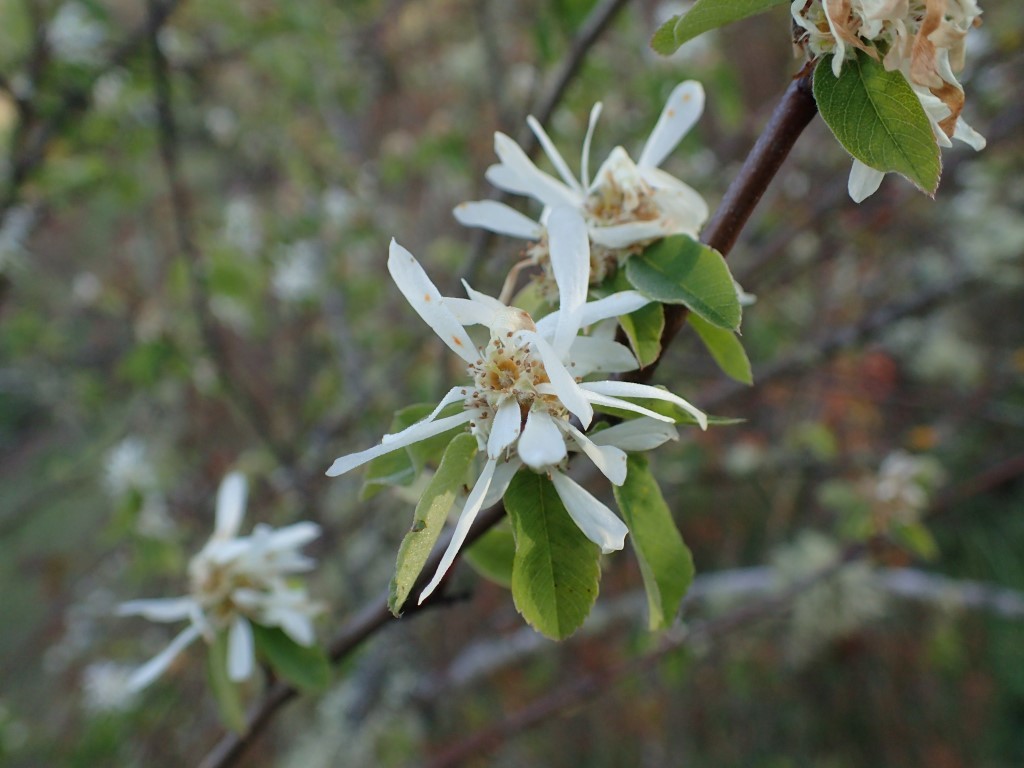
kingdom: Plantae
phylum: Tracheophyta
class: Magnoliopsida
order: Rosales
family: Rosaceae
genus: Amelanchier
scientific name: Amelanchier alnifolia
